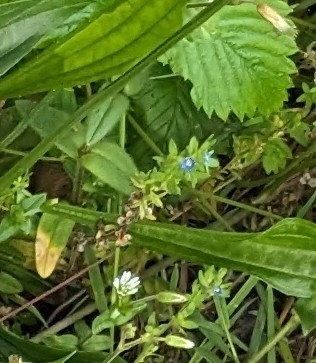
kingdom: Plantae
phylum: Tracheophyta
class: Magnoliopsida
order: Lamiales
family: Plantaginaceae
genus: Veronica
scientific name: Veronica arvensis
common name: Corn speedwell
